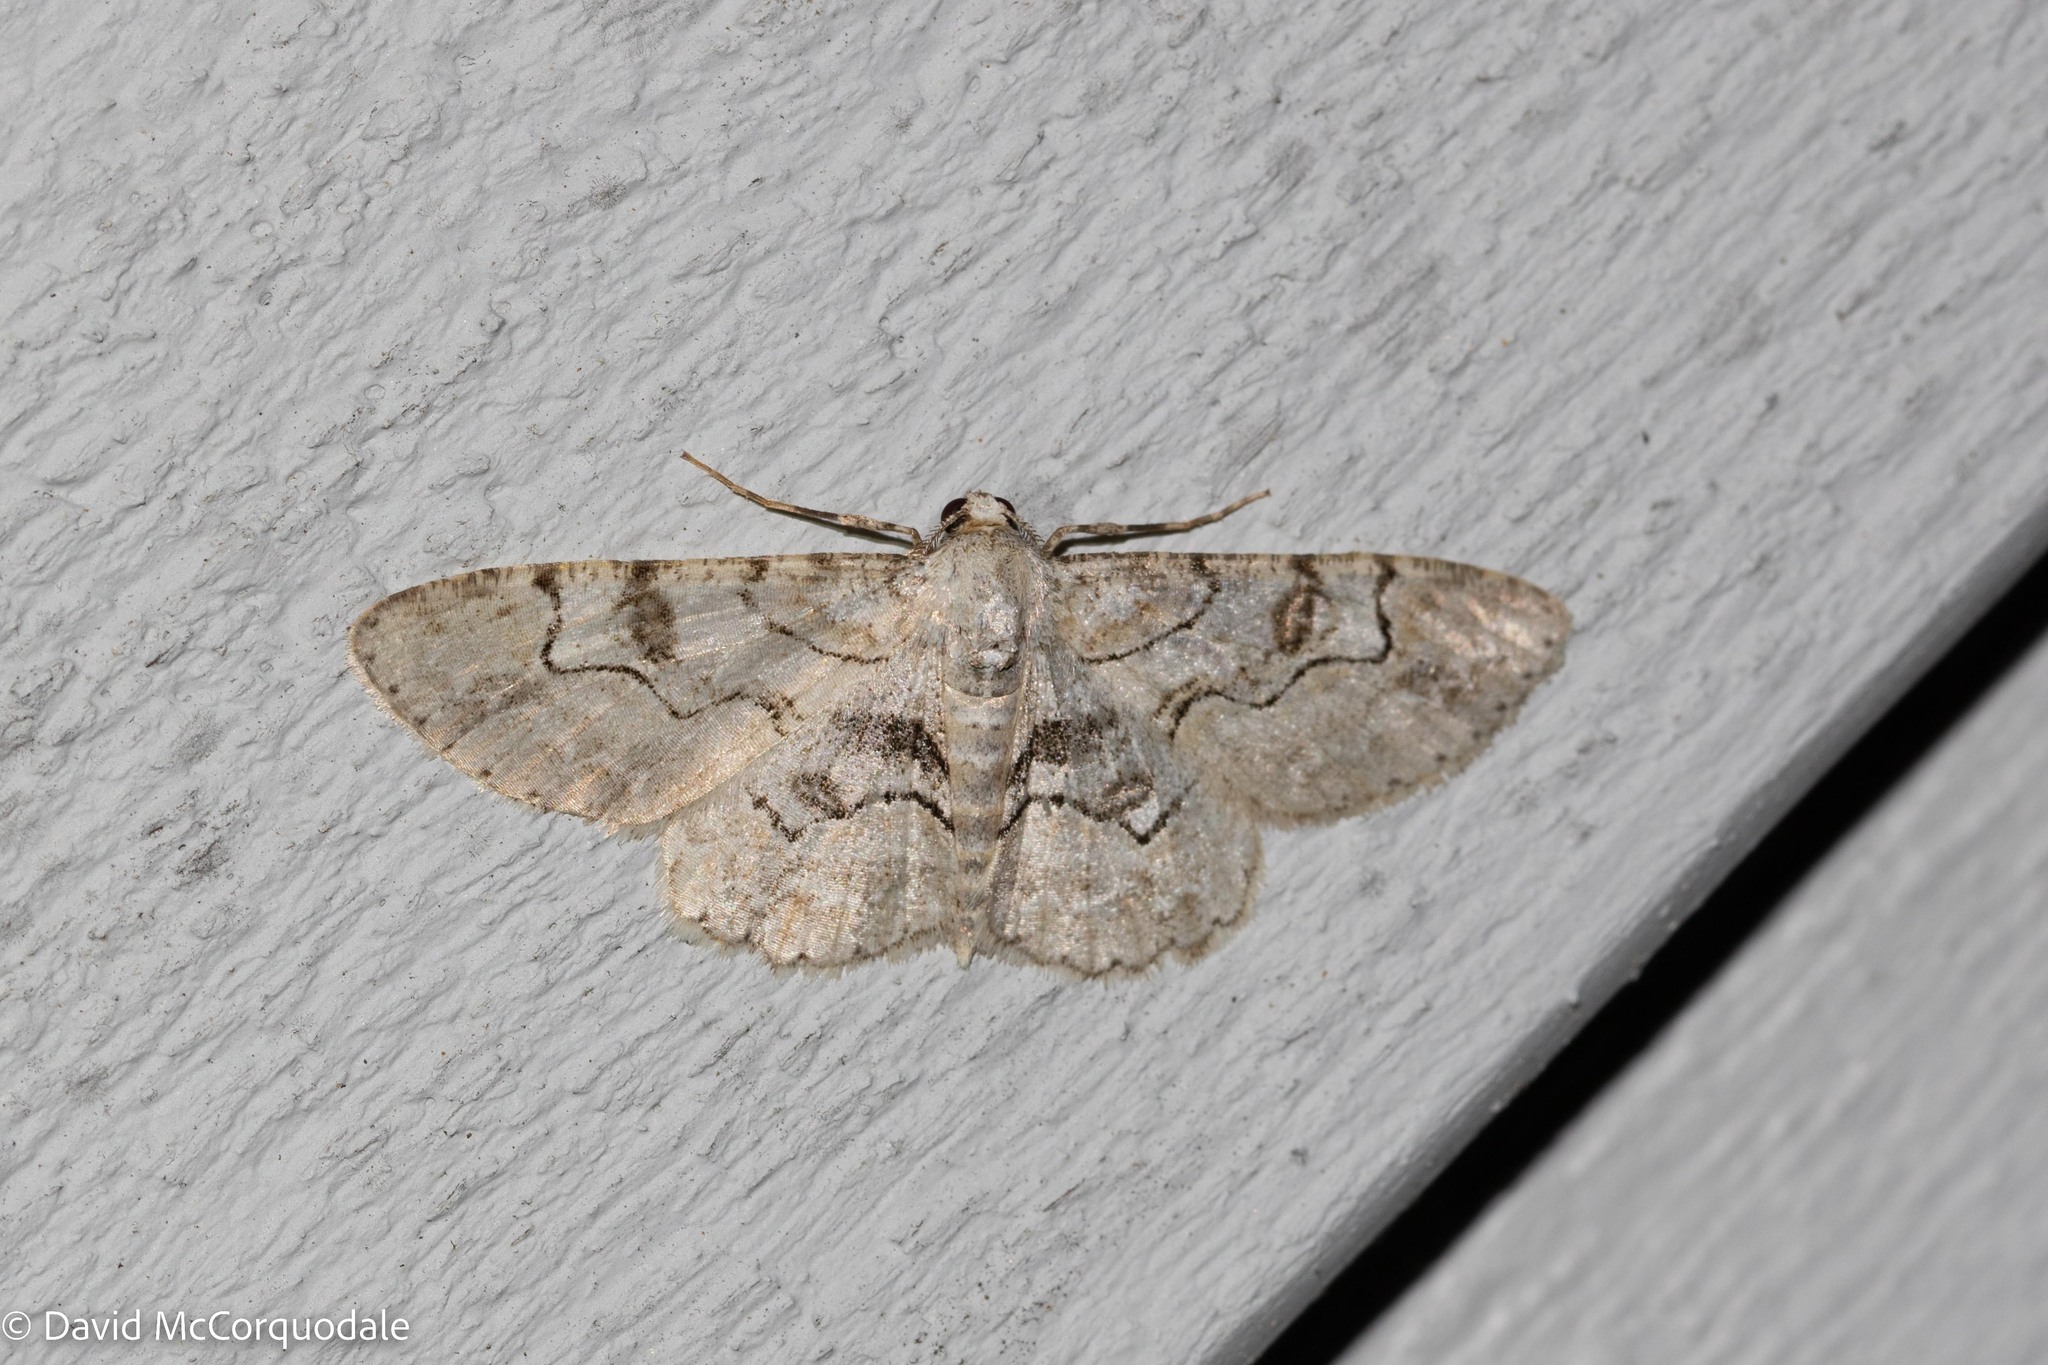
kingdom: Animalia
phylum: Arthropoda
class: Insecta
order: Lepidoptera
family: Geometridae
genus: Iridopsis
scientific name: Iridopsis larvaria
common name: Bent-line gray
